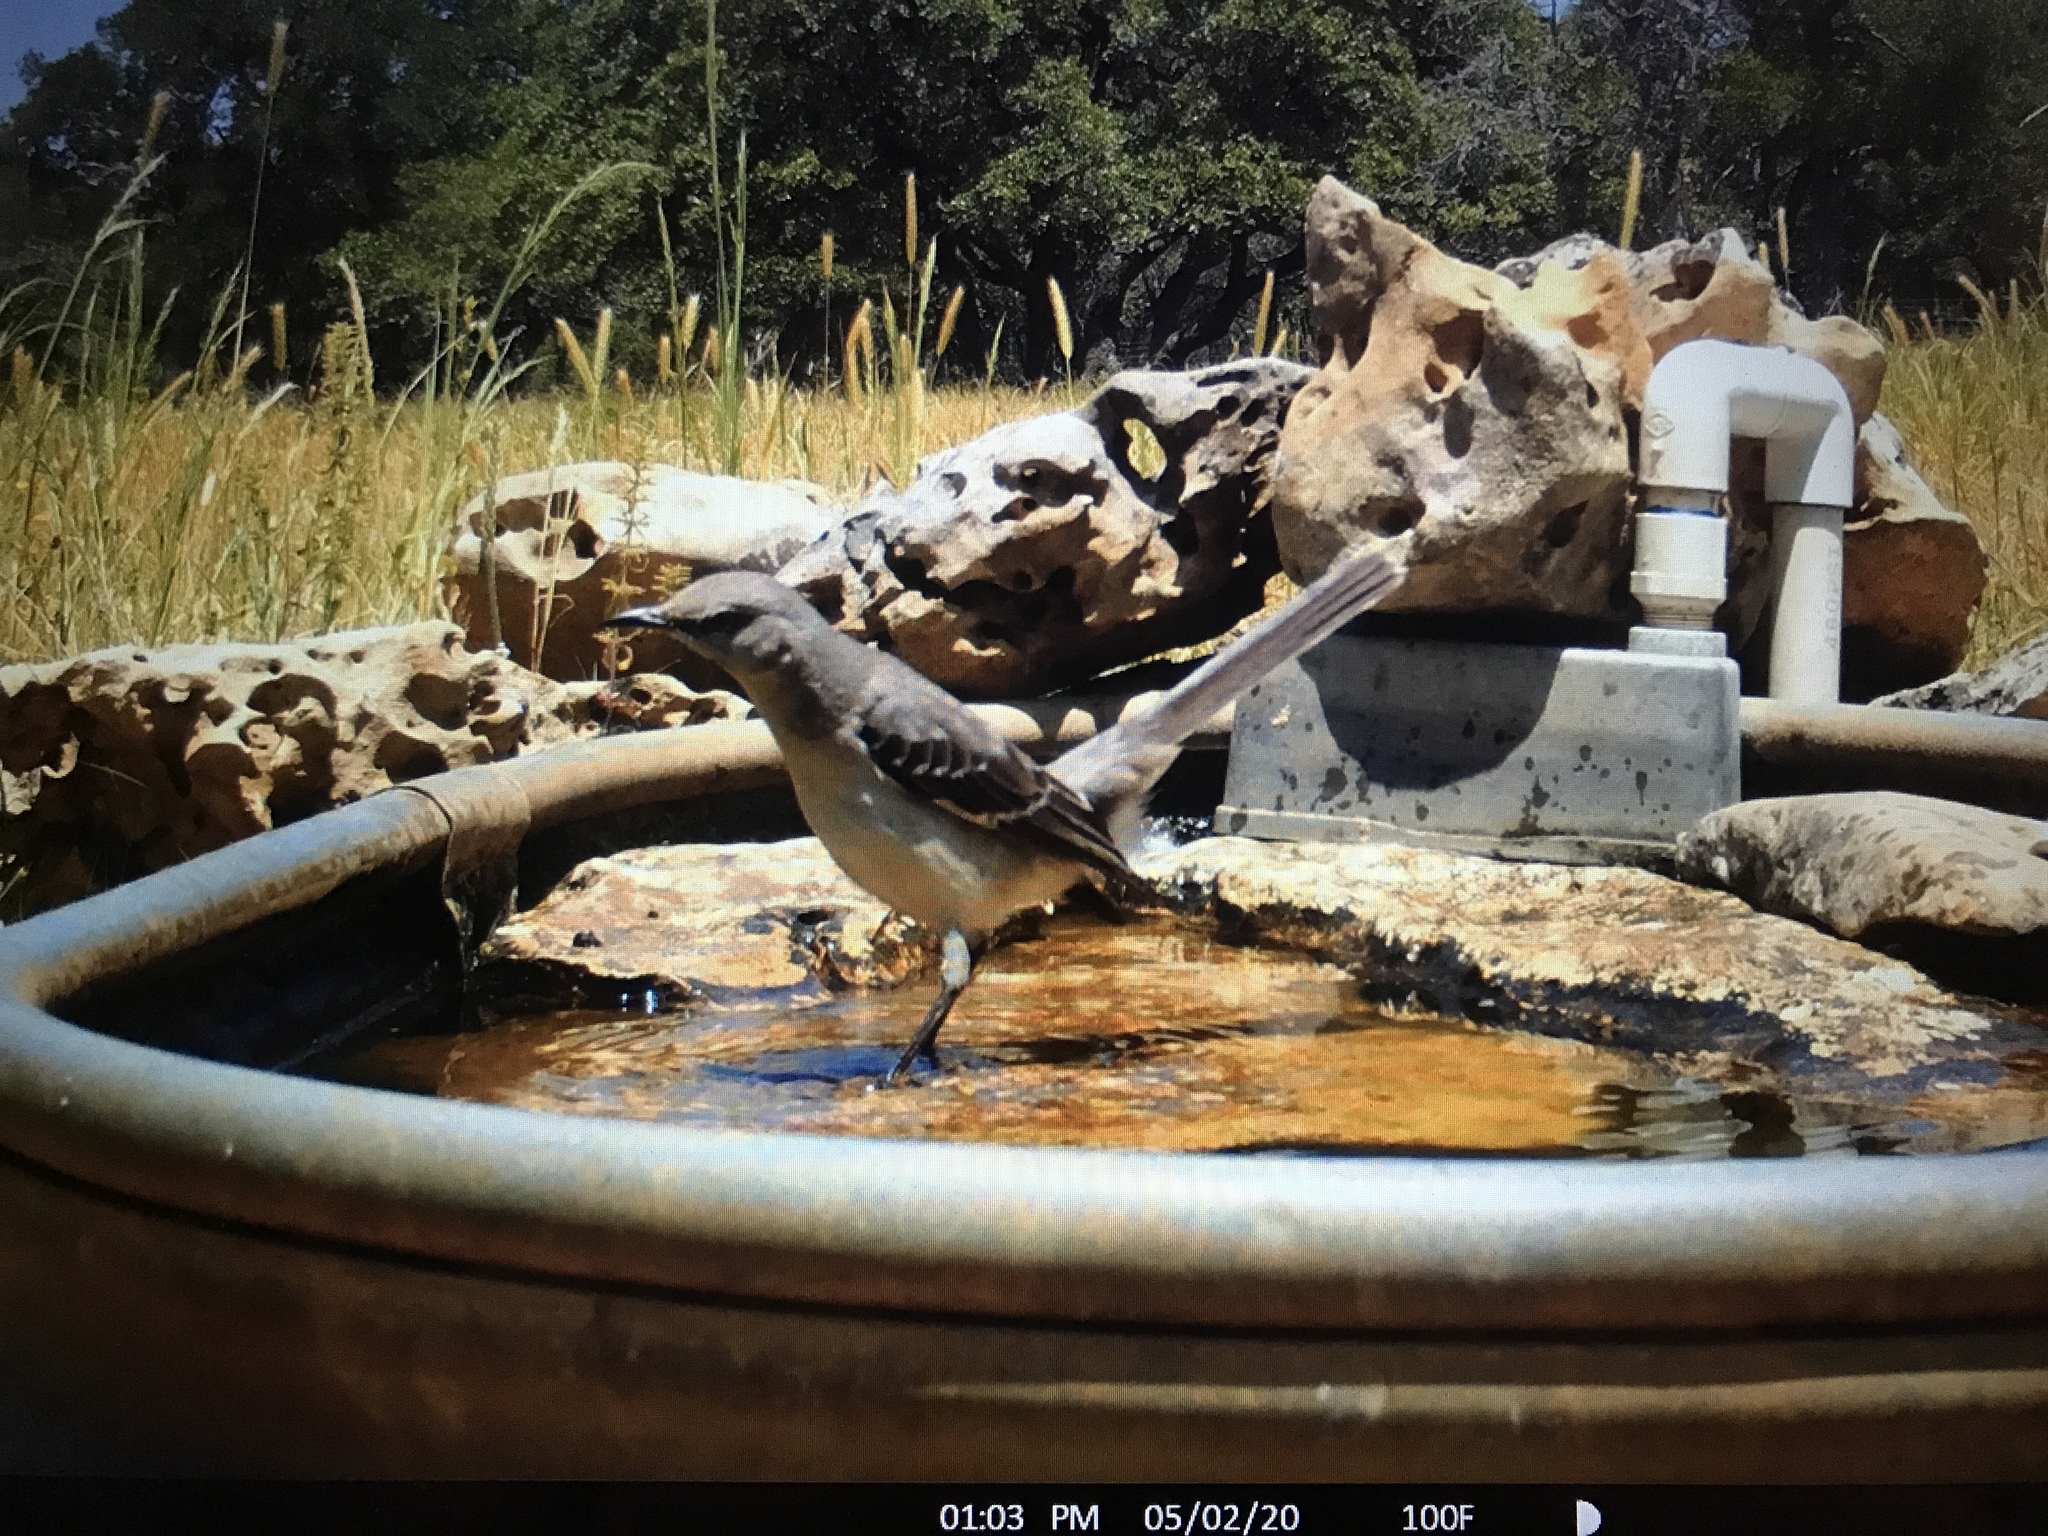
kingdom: Animalia
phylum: Chordata
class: Aves
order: Passeriformes
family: Mimidae
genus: Mimus
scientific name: Mimus polyglottos
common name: Northern mockingbird
